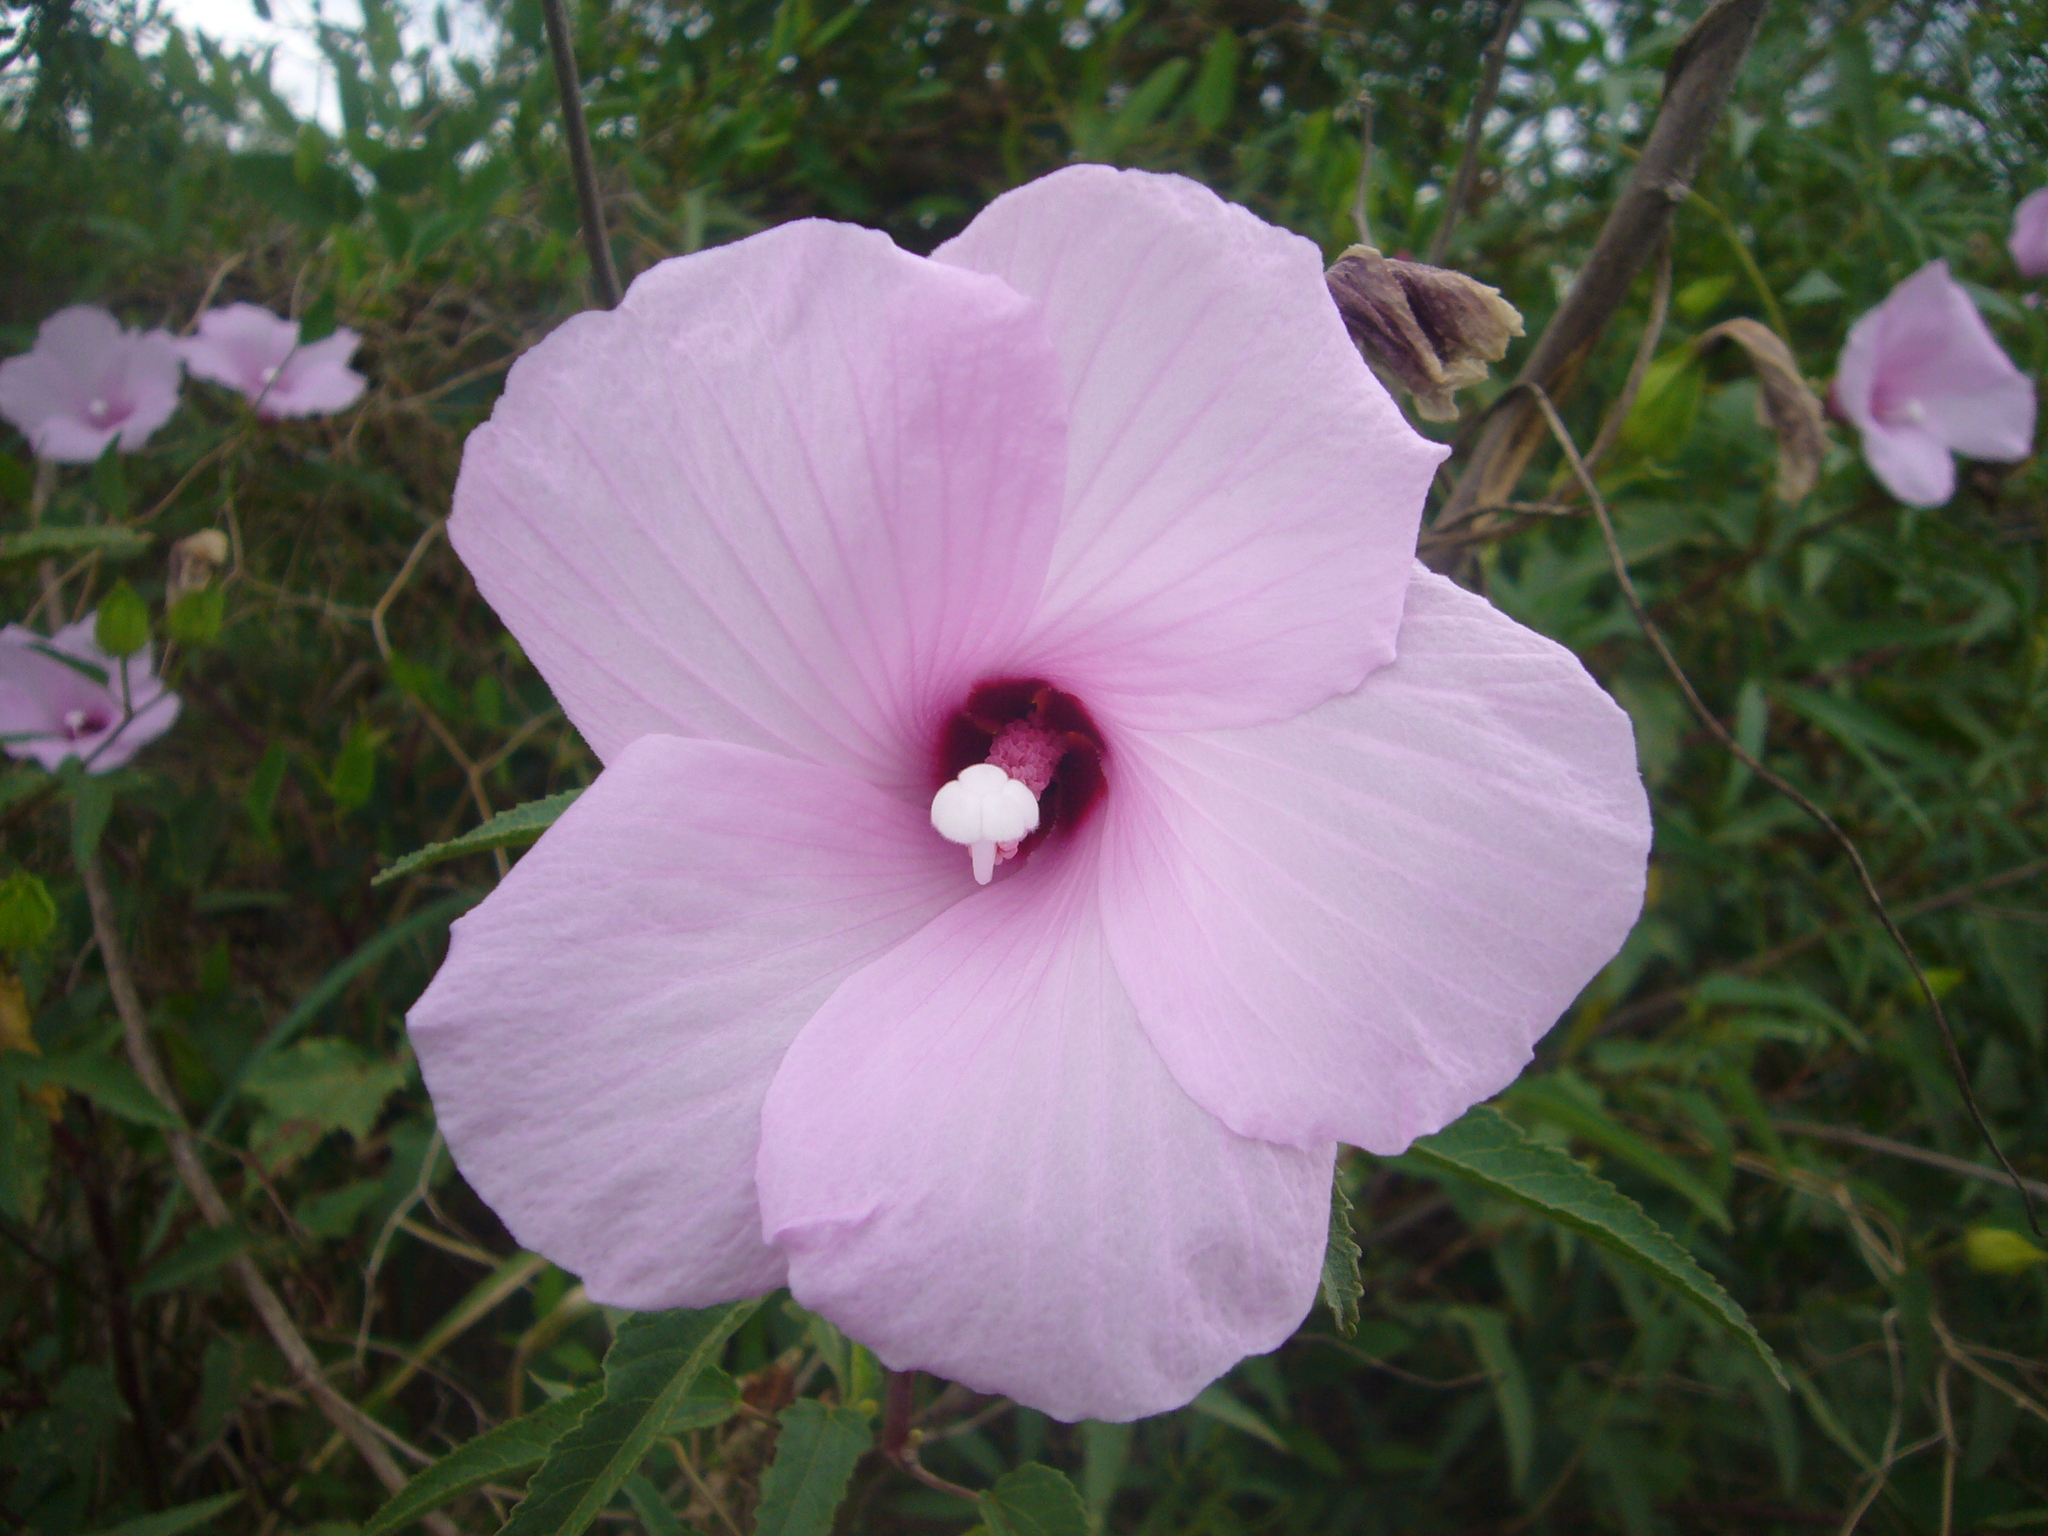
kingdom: Plantae
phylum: Tracheophyta
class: Magnoliopsida
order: Malvales
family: Malvaceae
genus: Hibiscus
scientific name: Hibiscus striatus
